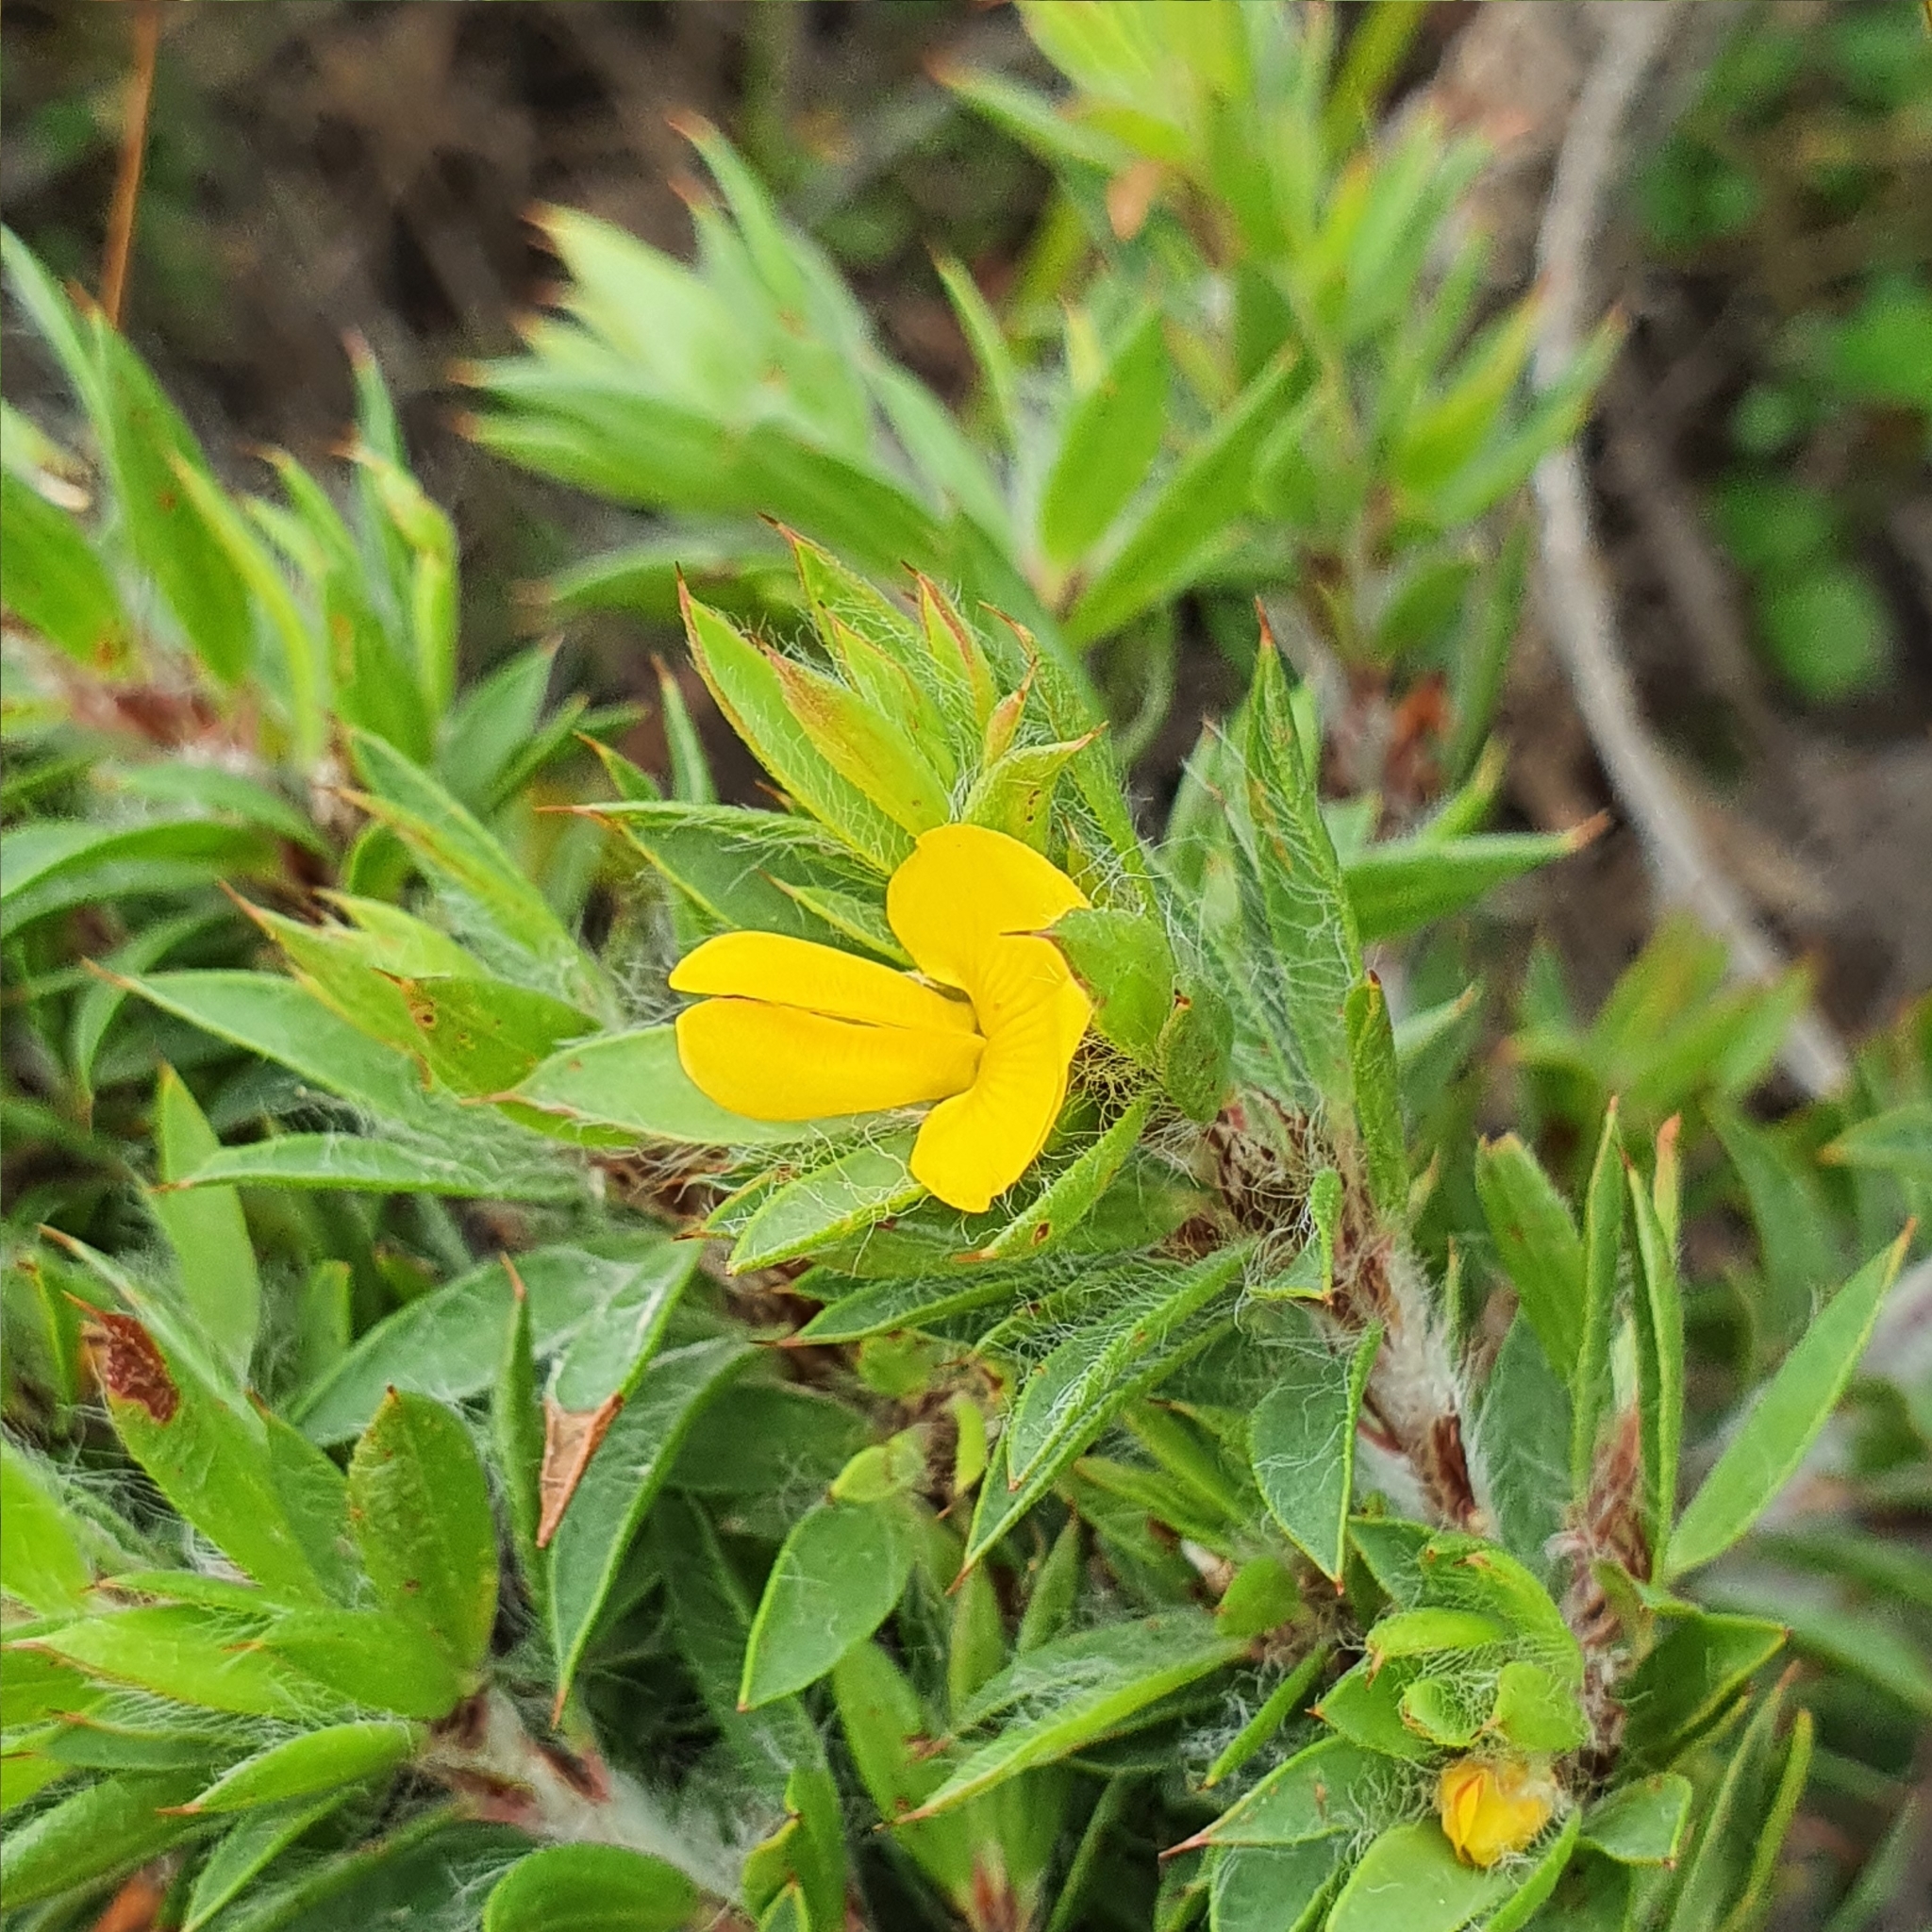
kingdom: Plantae
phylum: Tracheophyta
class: Magnoliopsida
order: Fabales
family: Fabaceae
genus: Pultenaea
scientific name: Pultenaea villifera
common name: Yellow bush-pea
